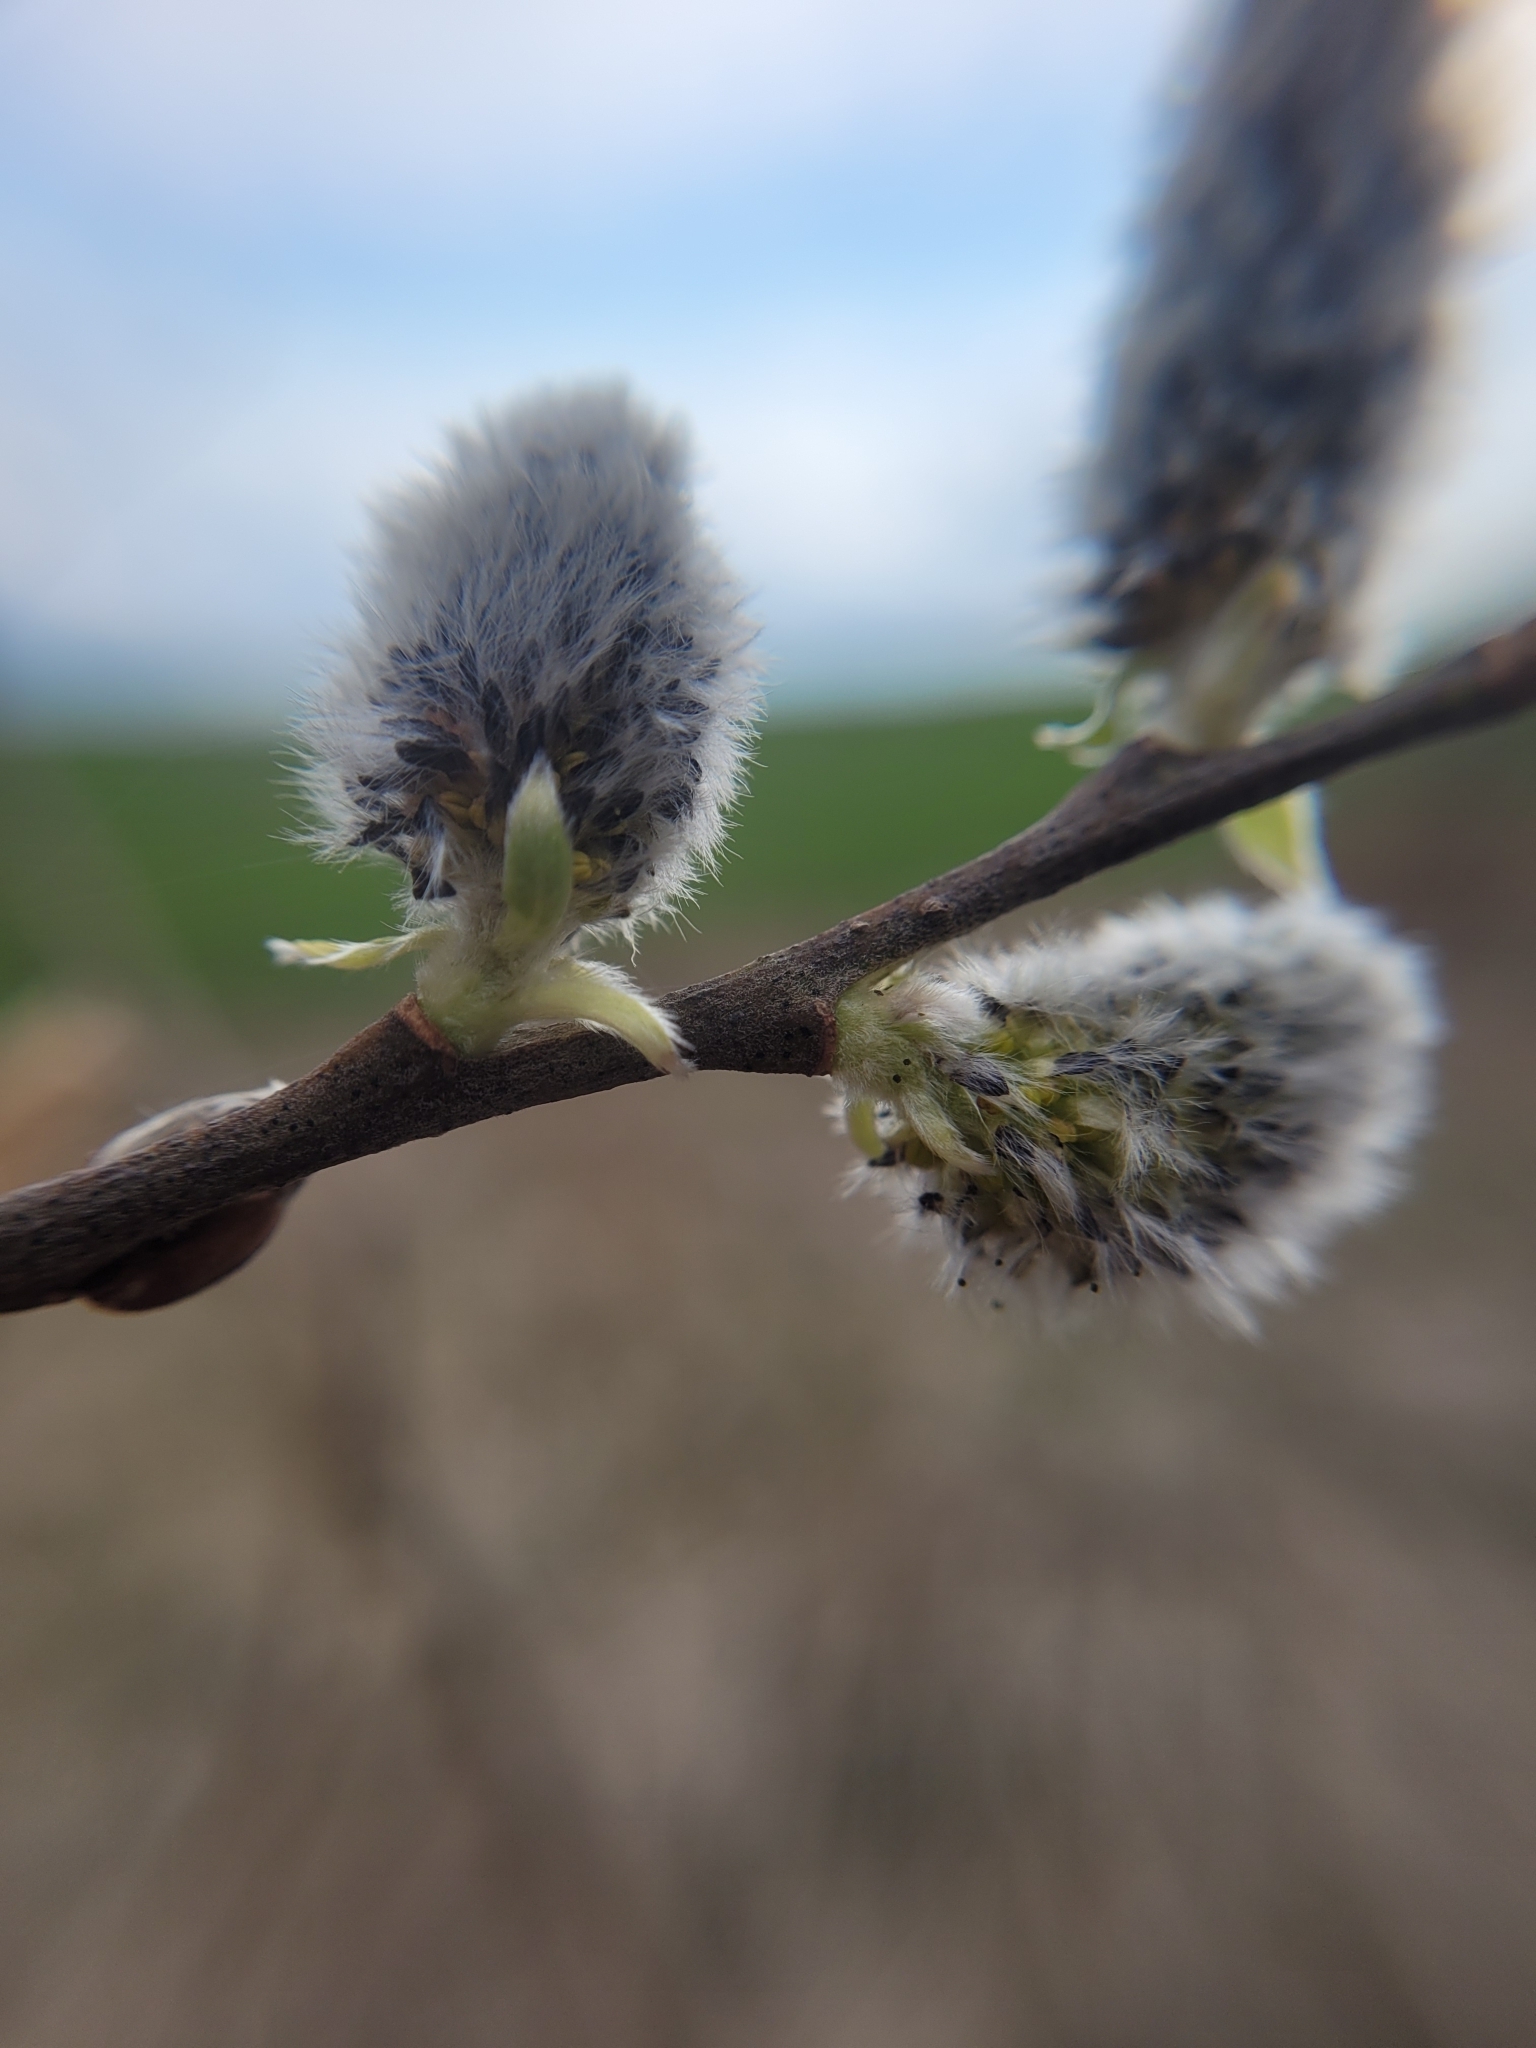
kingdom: Plantae
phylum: Tracheophyta
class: Magnoliopsida
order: Malpighiales
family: Salicaceae
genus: Salix
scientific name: Salix caprea
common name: Goat willow
